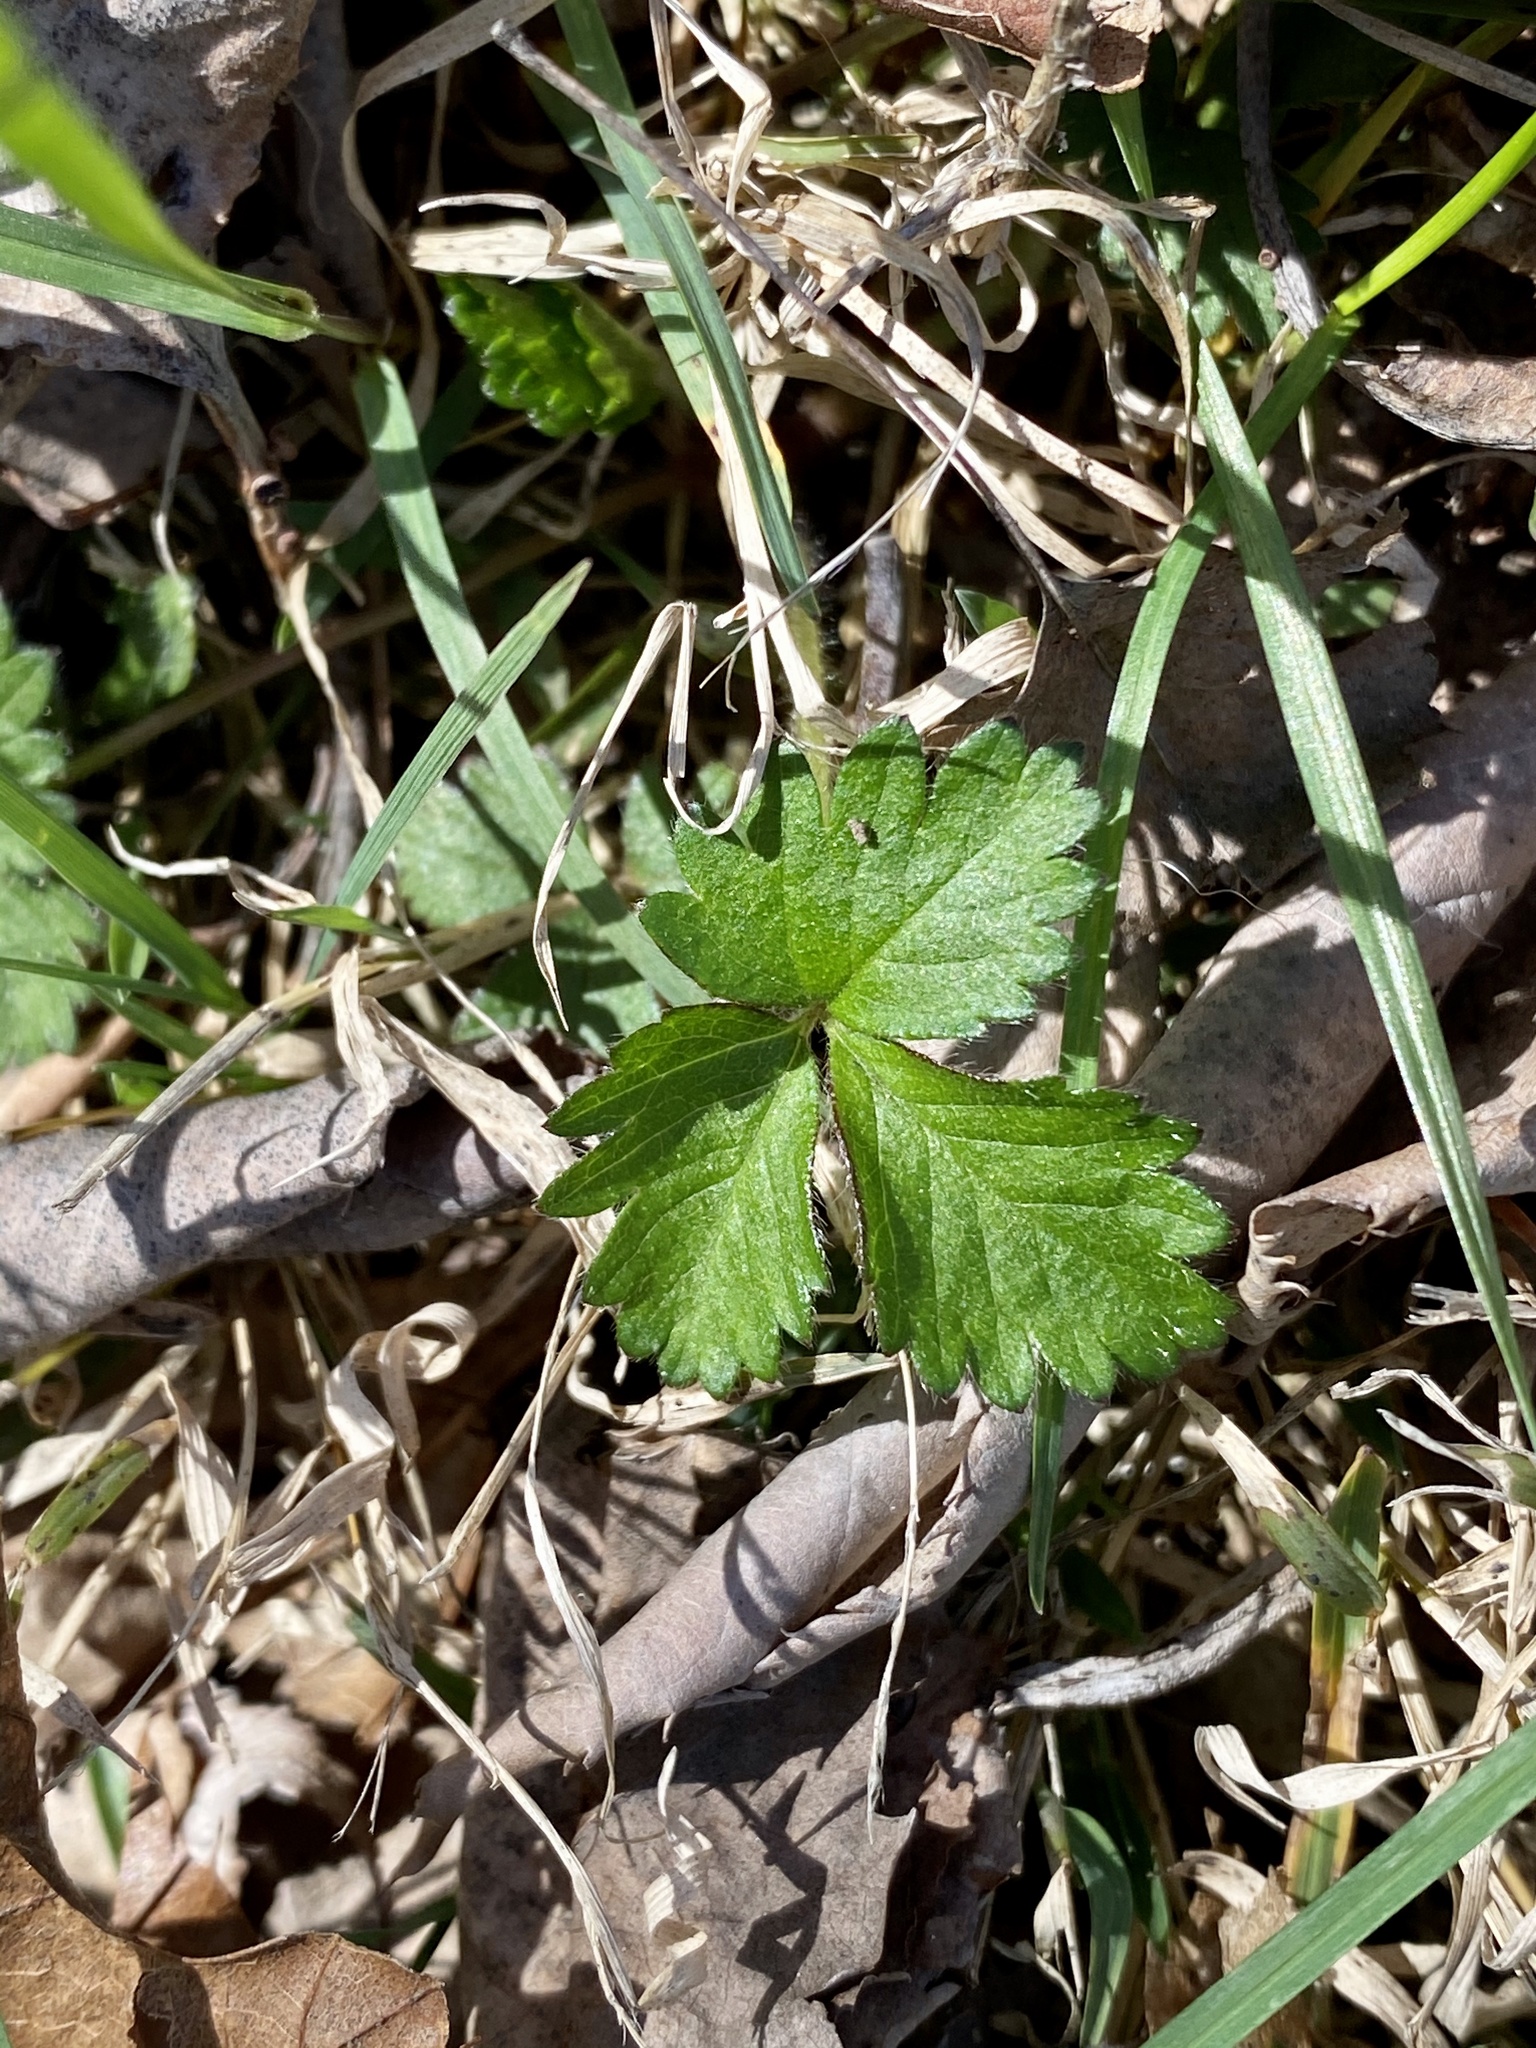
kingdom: Plantae
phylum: Tracheophyta
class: Magnoliopsida
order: Rosales
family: Rosaceae
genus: Potentilla
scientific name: Potentilla indica
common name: Yellow-flowered strawberry
